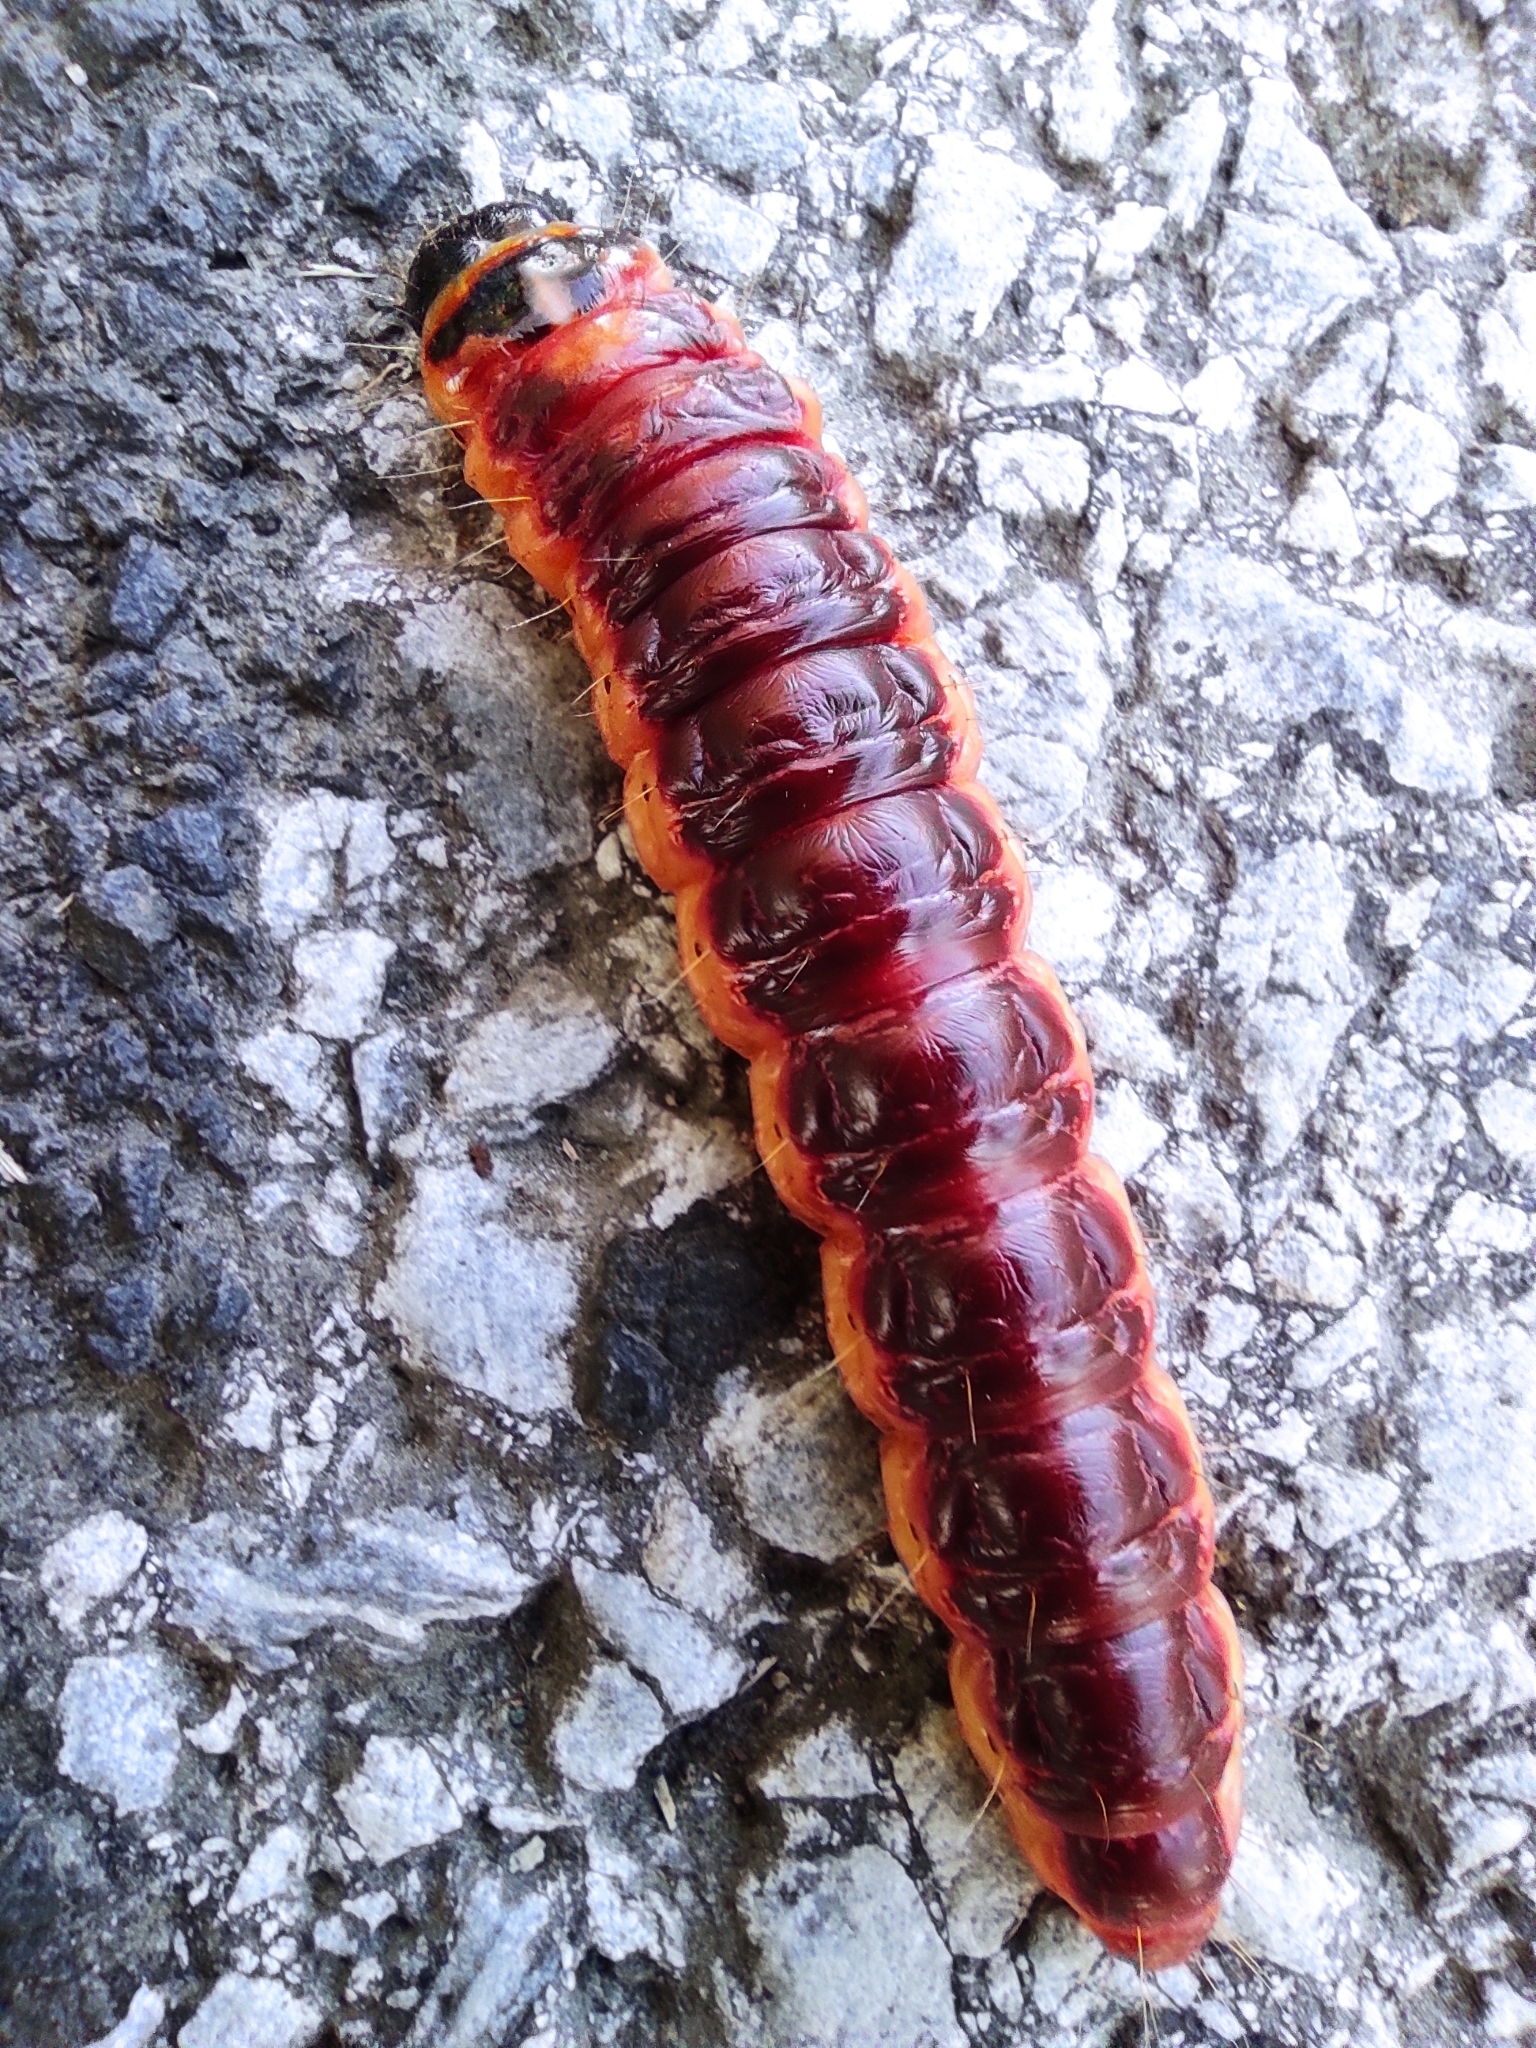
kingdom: Animalia
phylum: Arthropoda
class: Insecta
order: Lepidoptera
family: Cossidae
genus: Cossus
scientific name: Cossus cossus
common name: Goat moth
